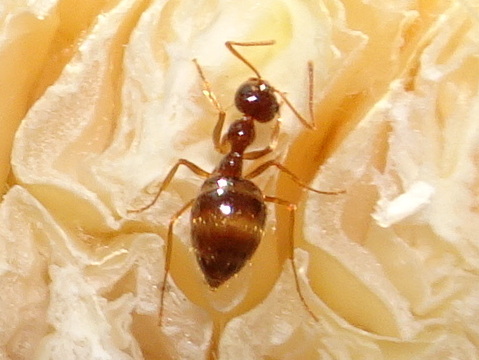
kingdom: Animalia
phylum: Arthropoda
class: Insecta
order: Hymenoptera
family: Formicidae
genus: Prenolepis
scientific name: Prenolepis imparis
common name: Small honey ant
